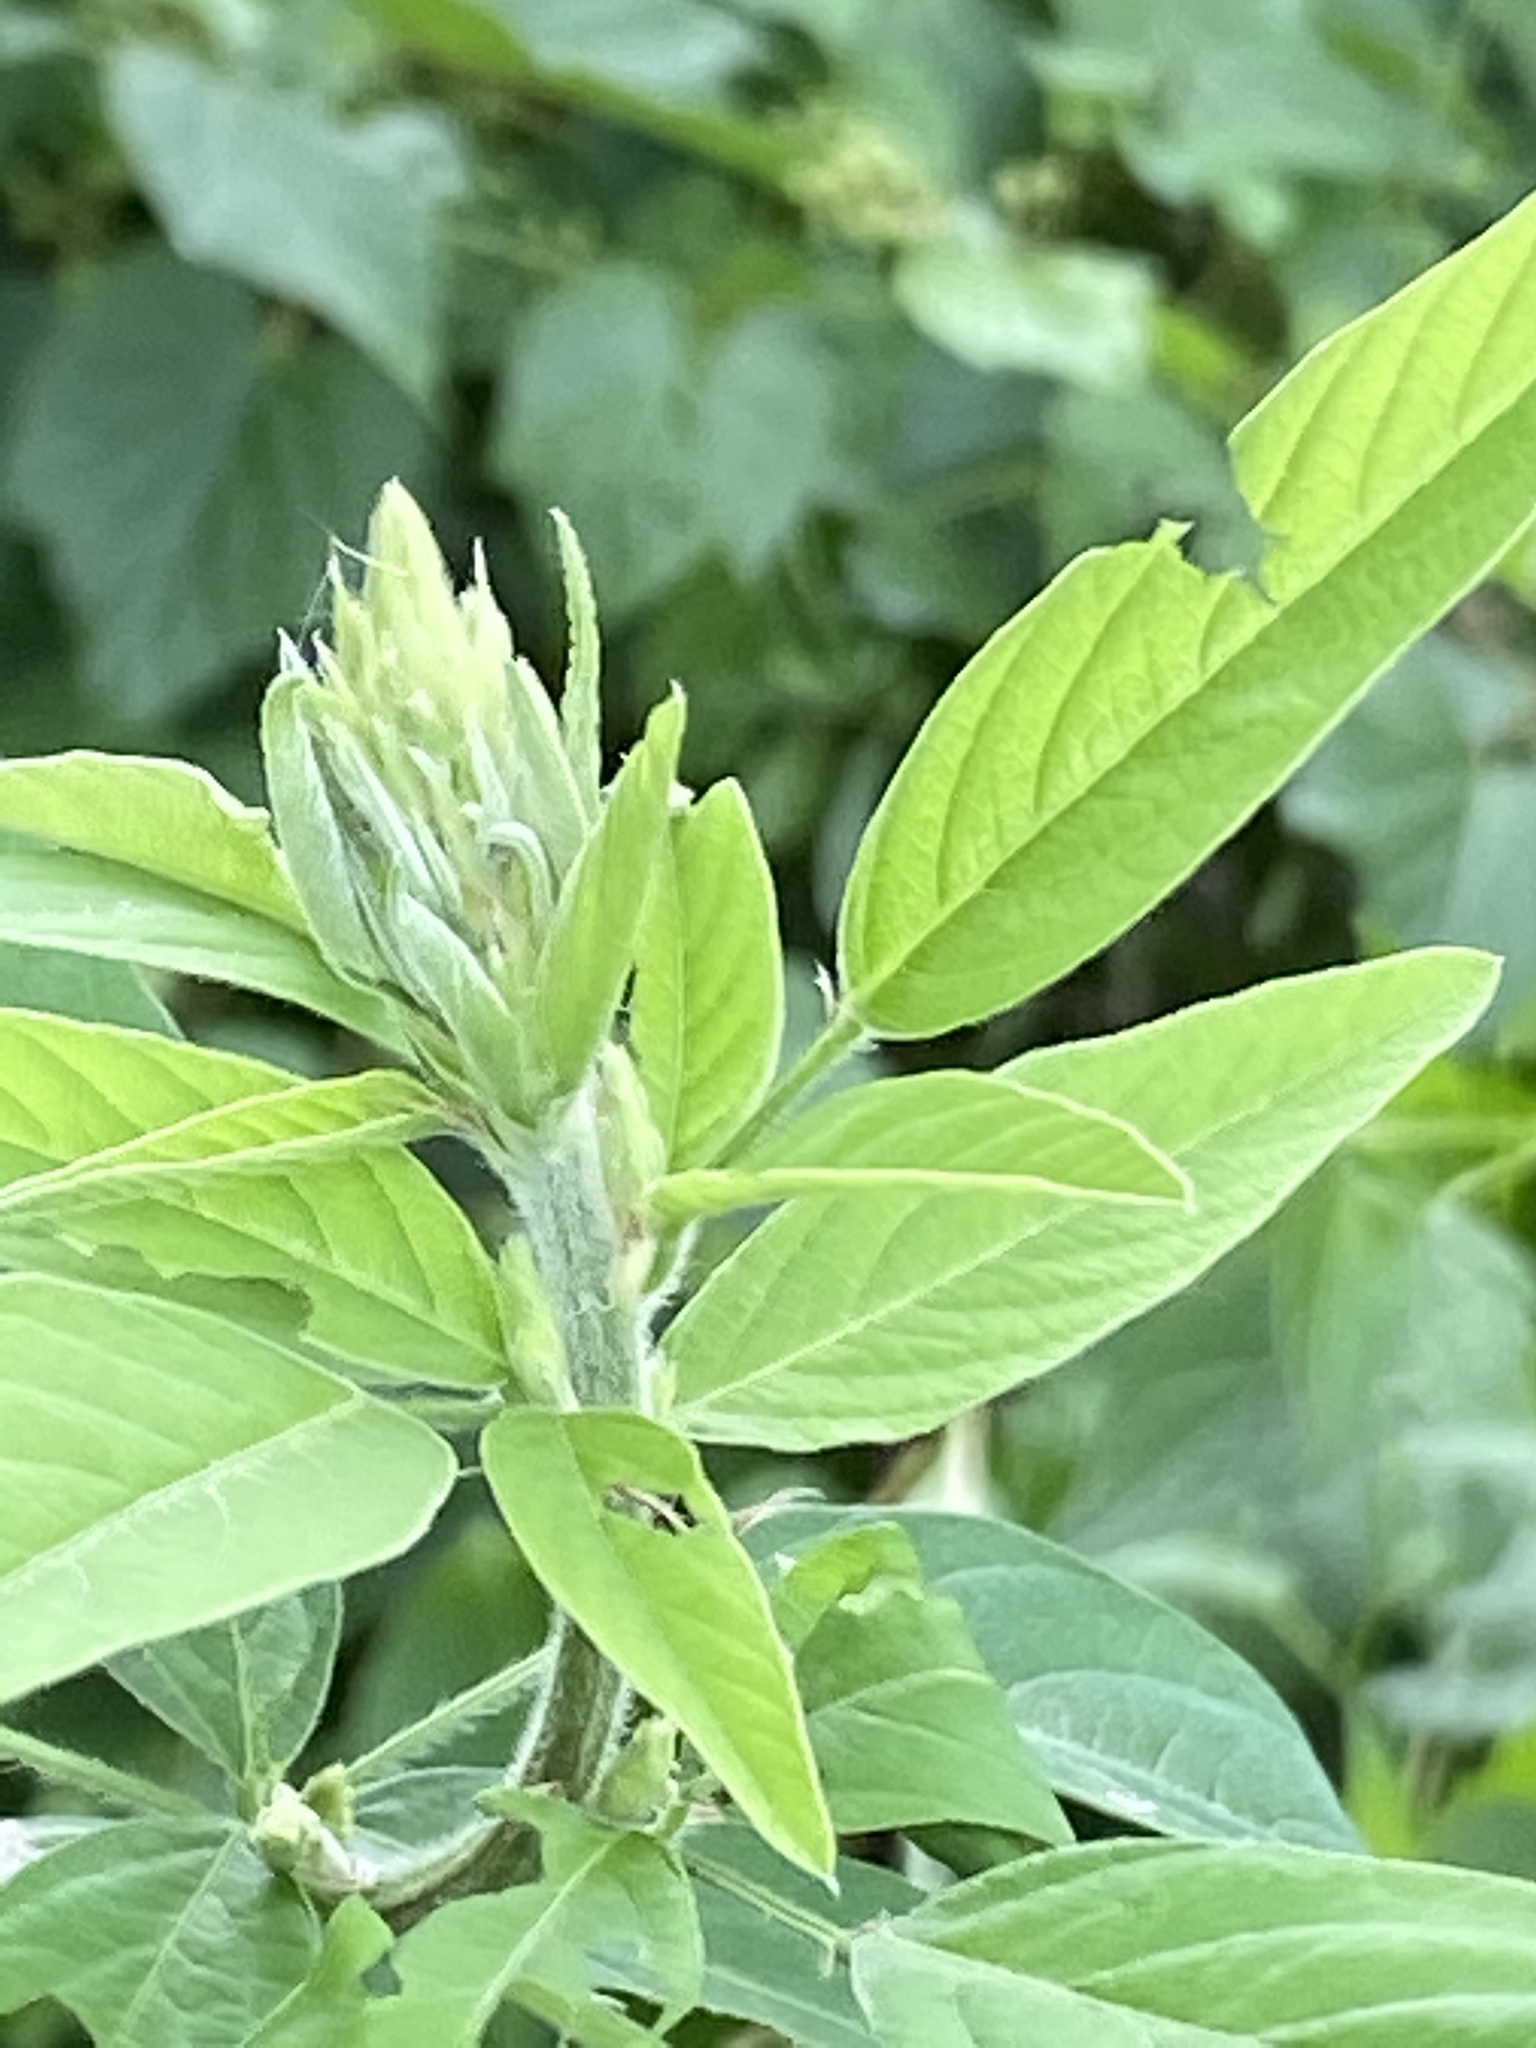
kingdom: Plantae
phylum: Tracheophyta
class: Magnoliopsida
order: Fabales
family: Fabaceae
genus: Desmodium
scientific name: Desmodium canadense
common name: Canada tick-trefoil
